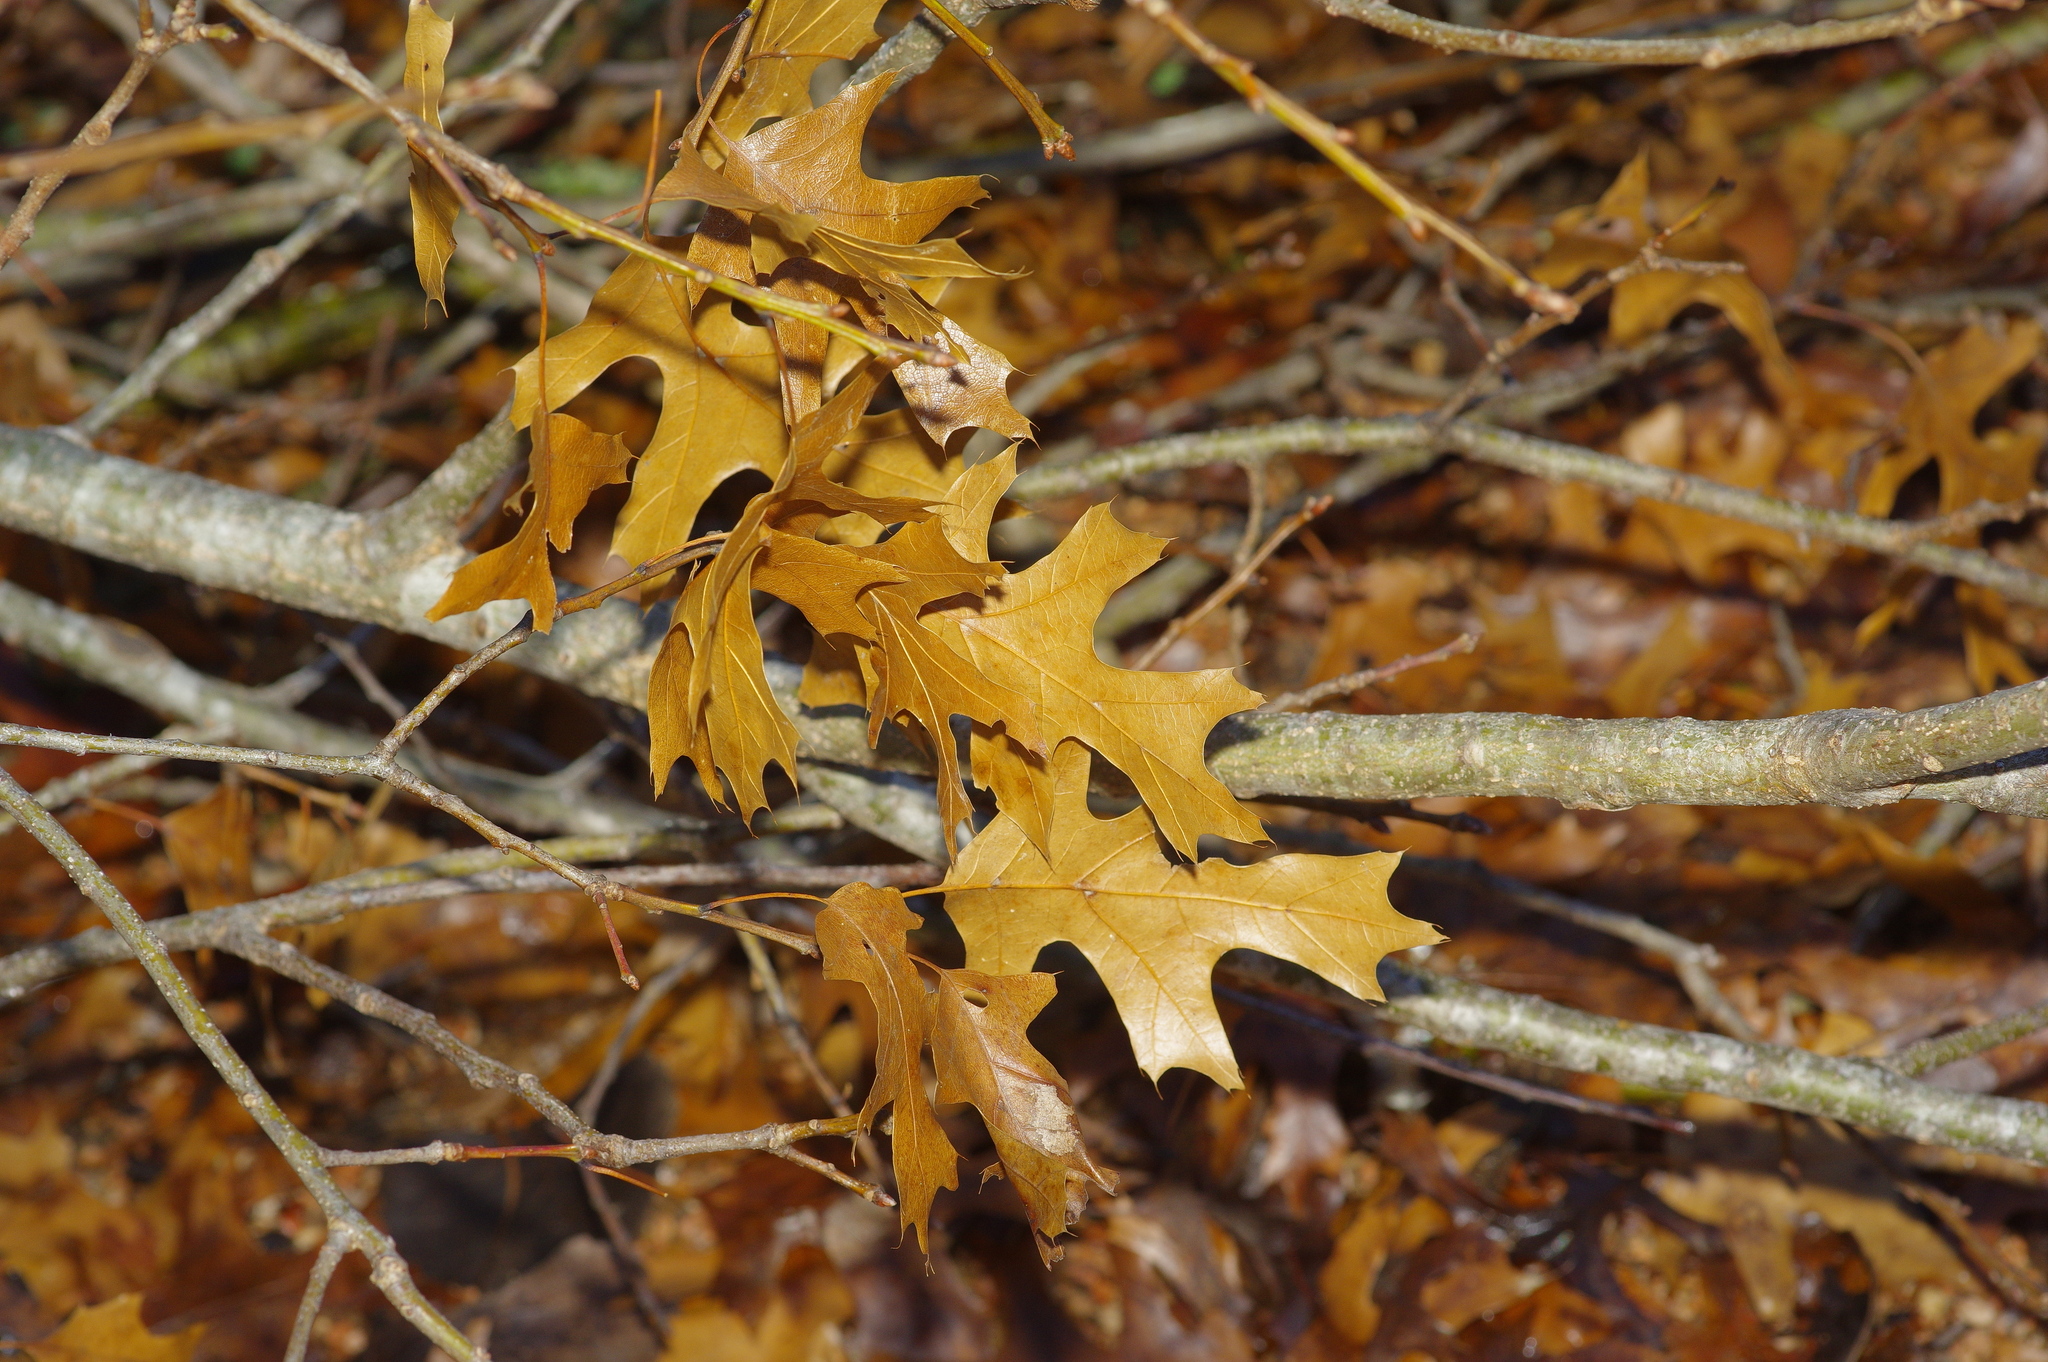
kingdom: Plantae
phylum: Tracheophyta
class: Magnoliopsida
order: Fagales
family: Fagaceae
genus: Quercus
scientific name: Quercus shumardii
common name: Shumard oak
